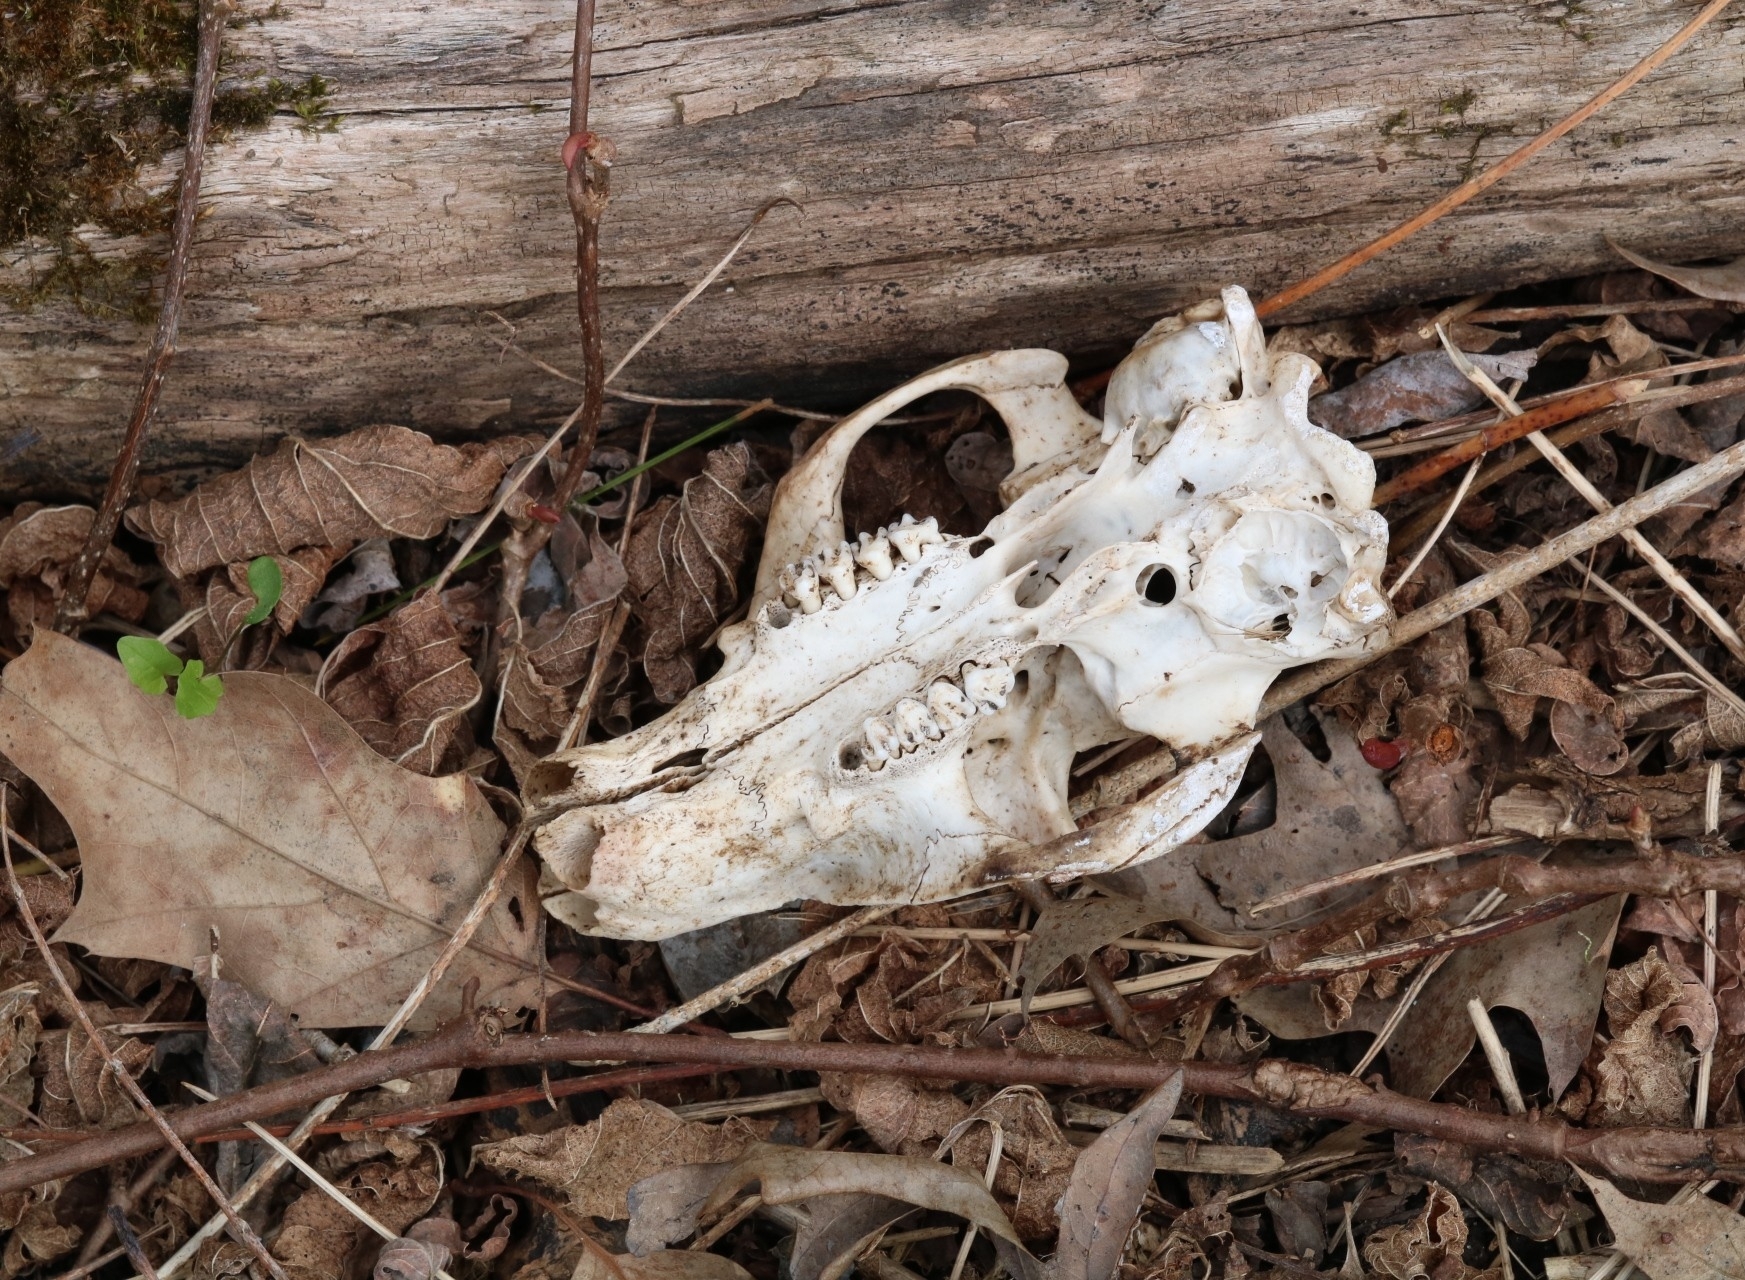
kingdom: Animalia
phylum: Chordata
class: Mammalia
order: Rodentia
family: Sciuridae
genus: Marmota
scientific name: Marmota monax
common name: Groundhog
